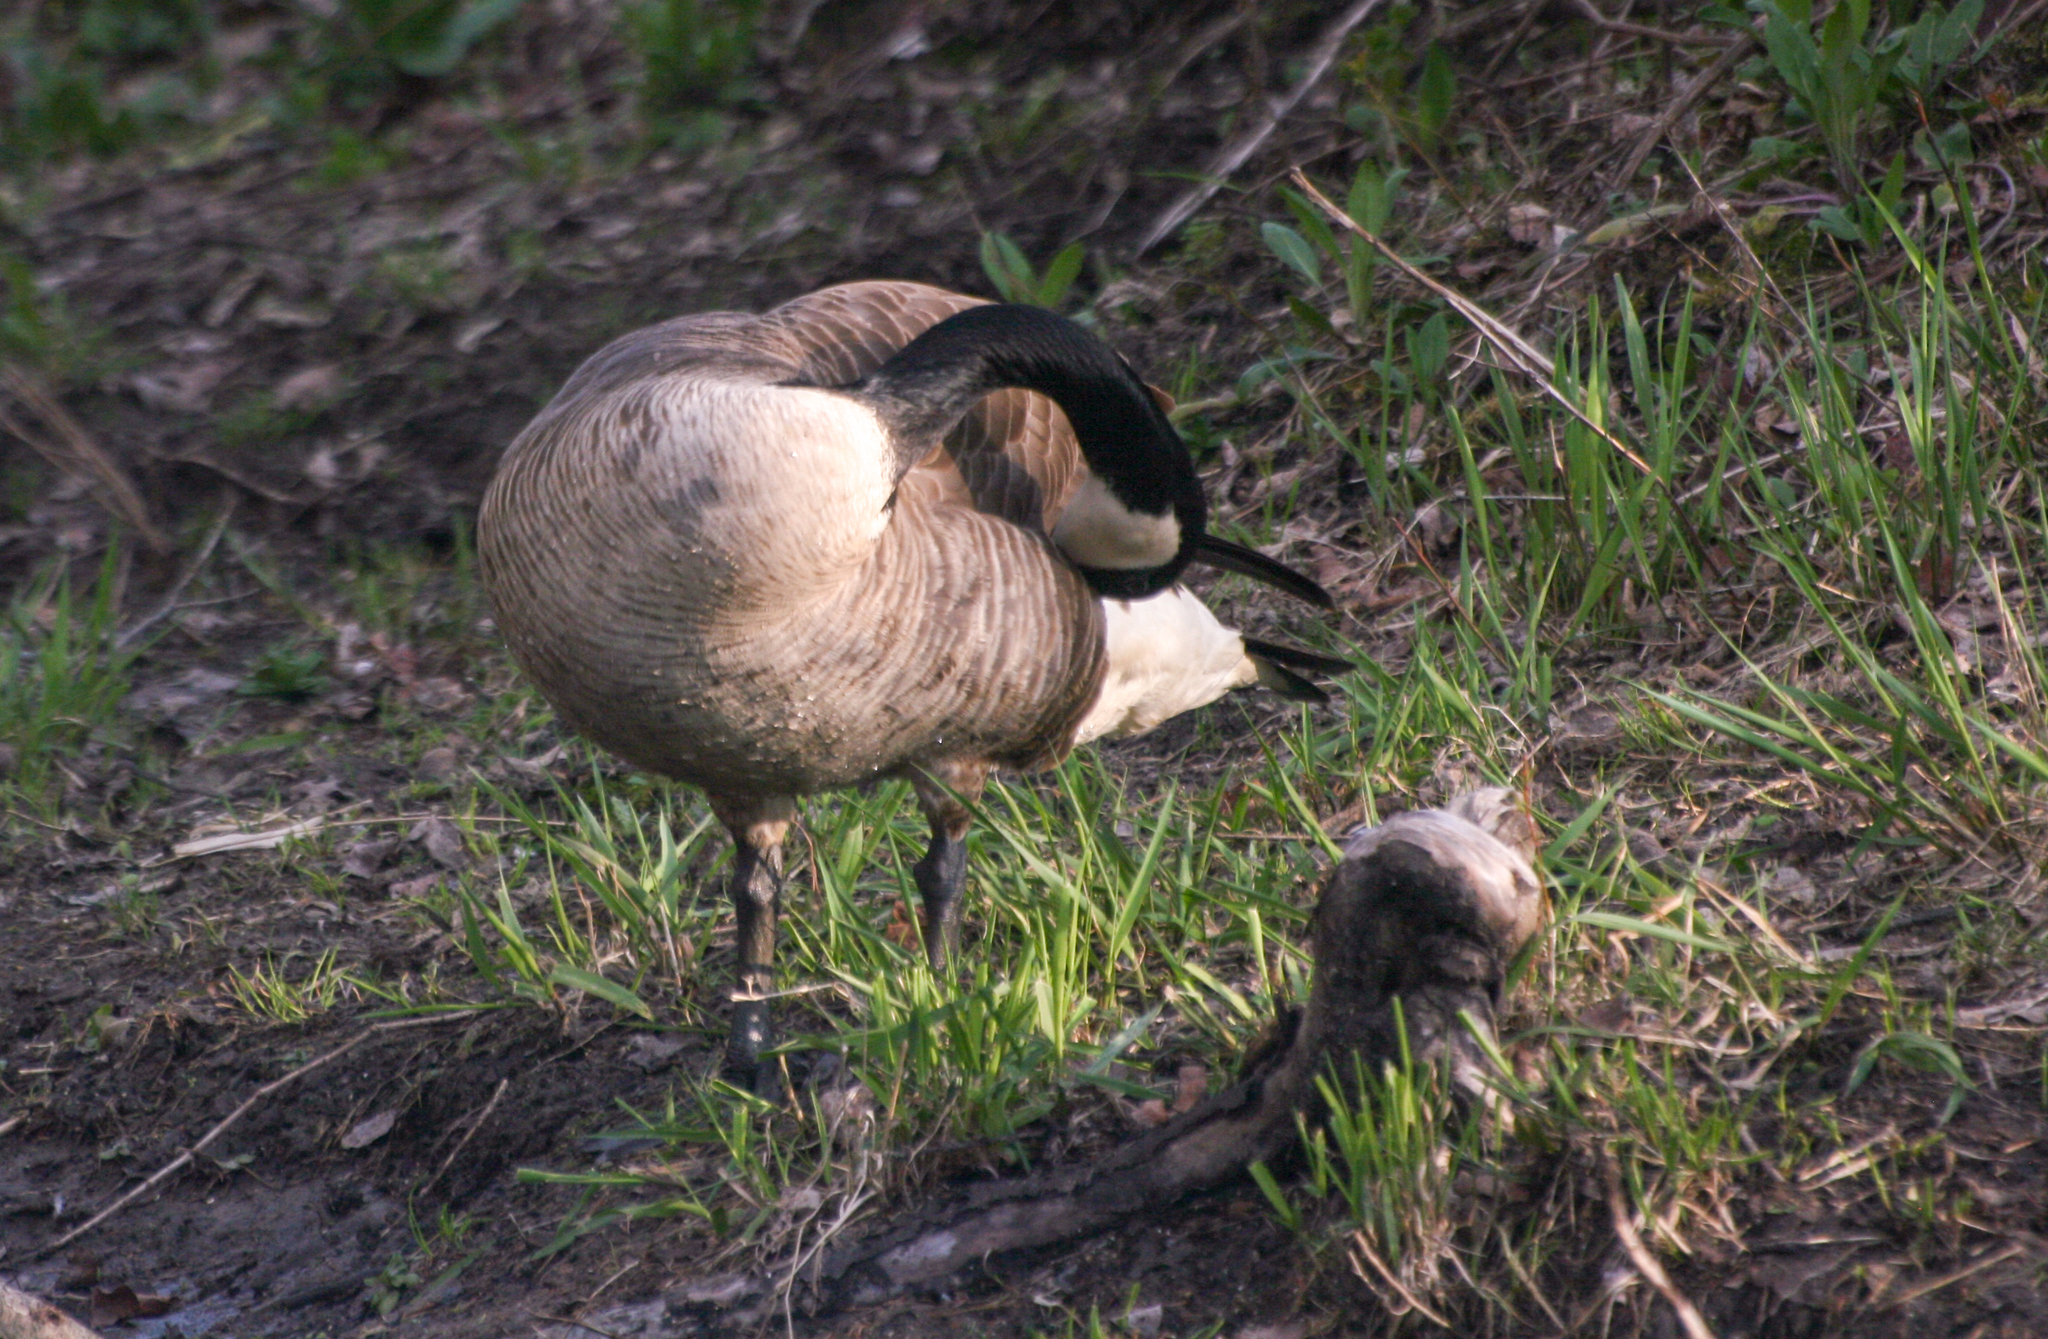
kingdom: Animalia
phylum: Chordata
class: Aves
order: Anseriformes
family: Anatidae
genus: Branta
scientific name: Branta canadensis
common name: Canada goose
